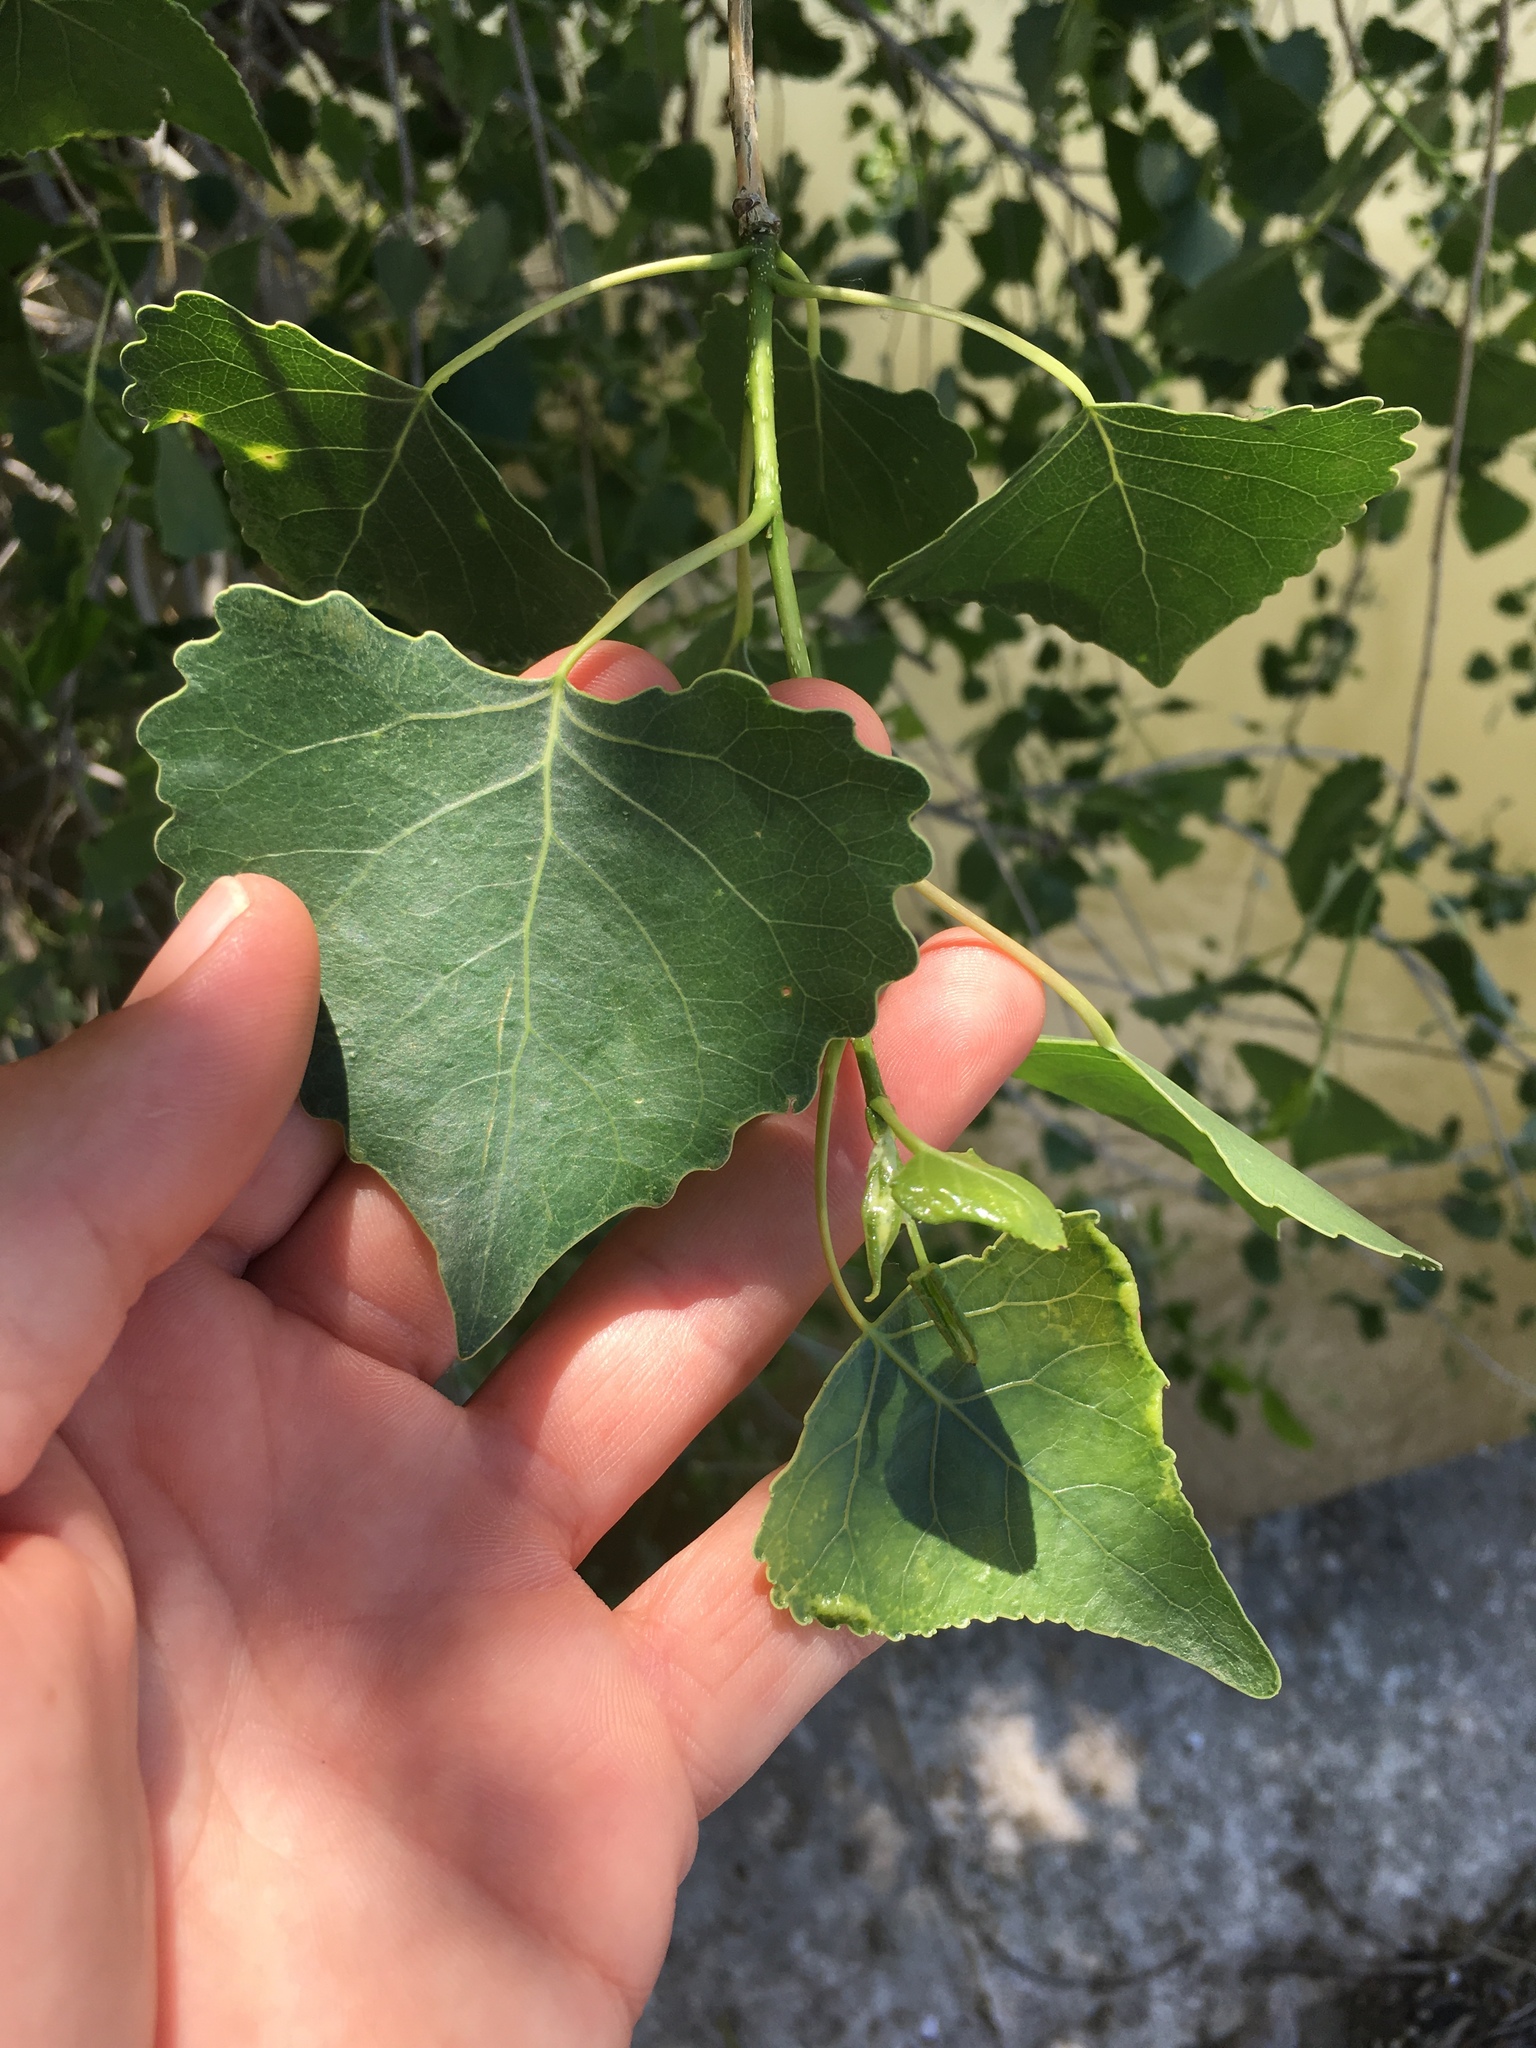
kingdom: Plantae
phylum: Tracheophyta
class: Magnoliopsida
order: Malpighiales
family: Salicaceae
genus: Populus
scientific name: Populus fremontii
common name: Fremont's cottonwood
